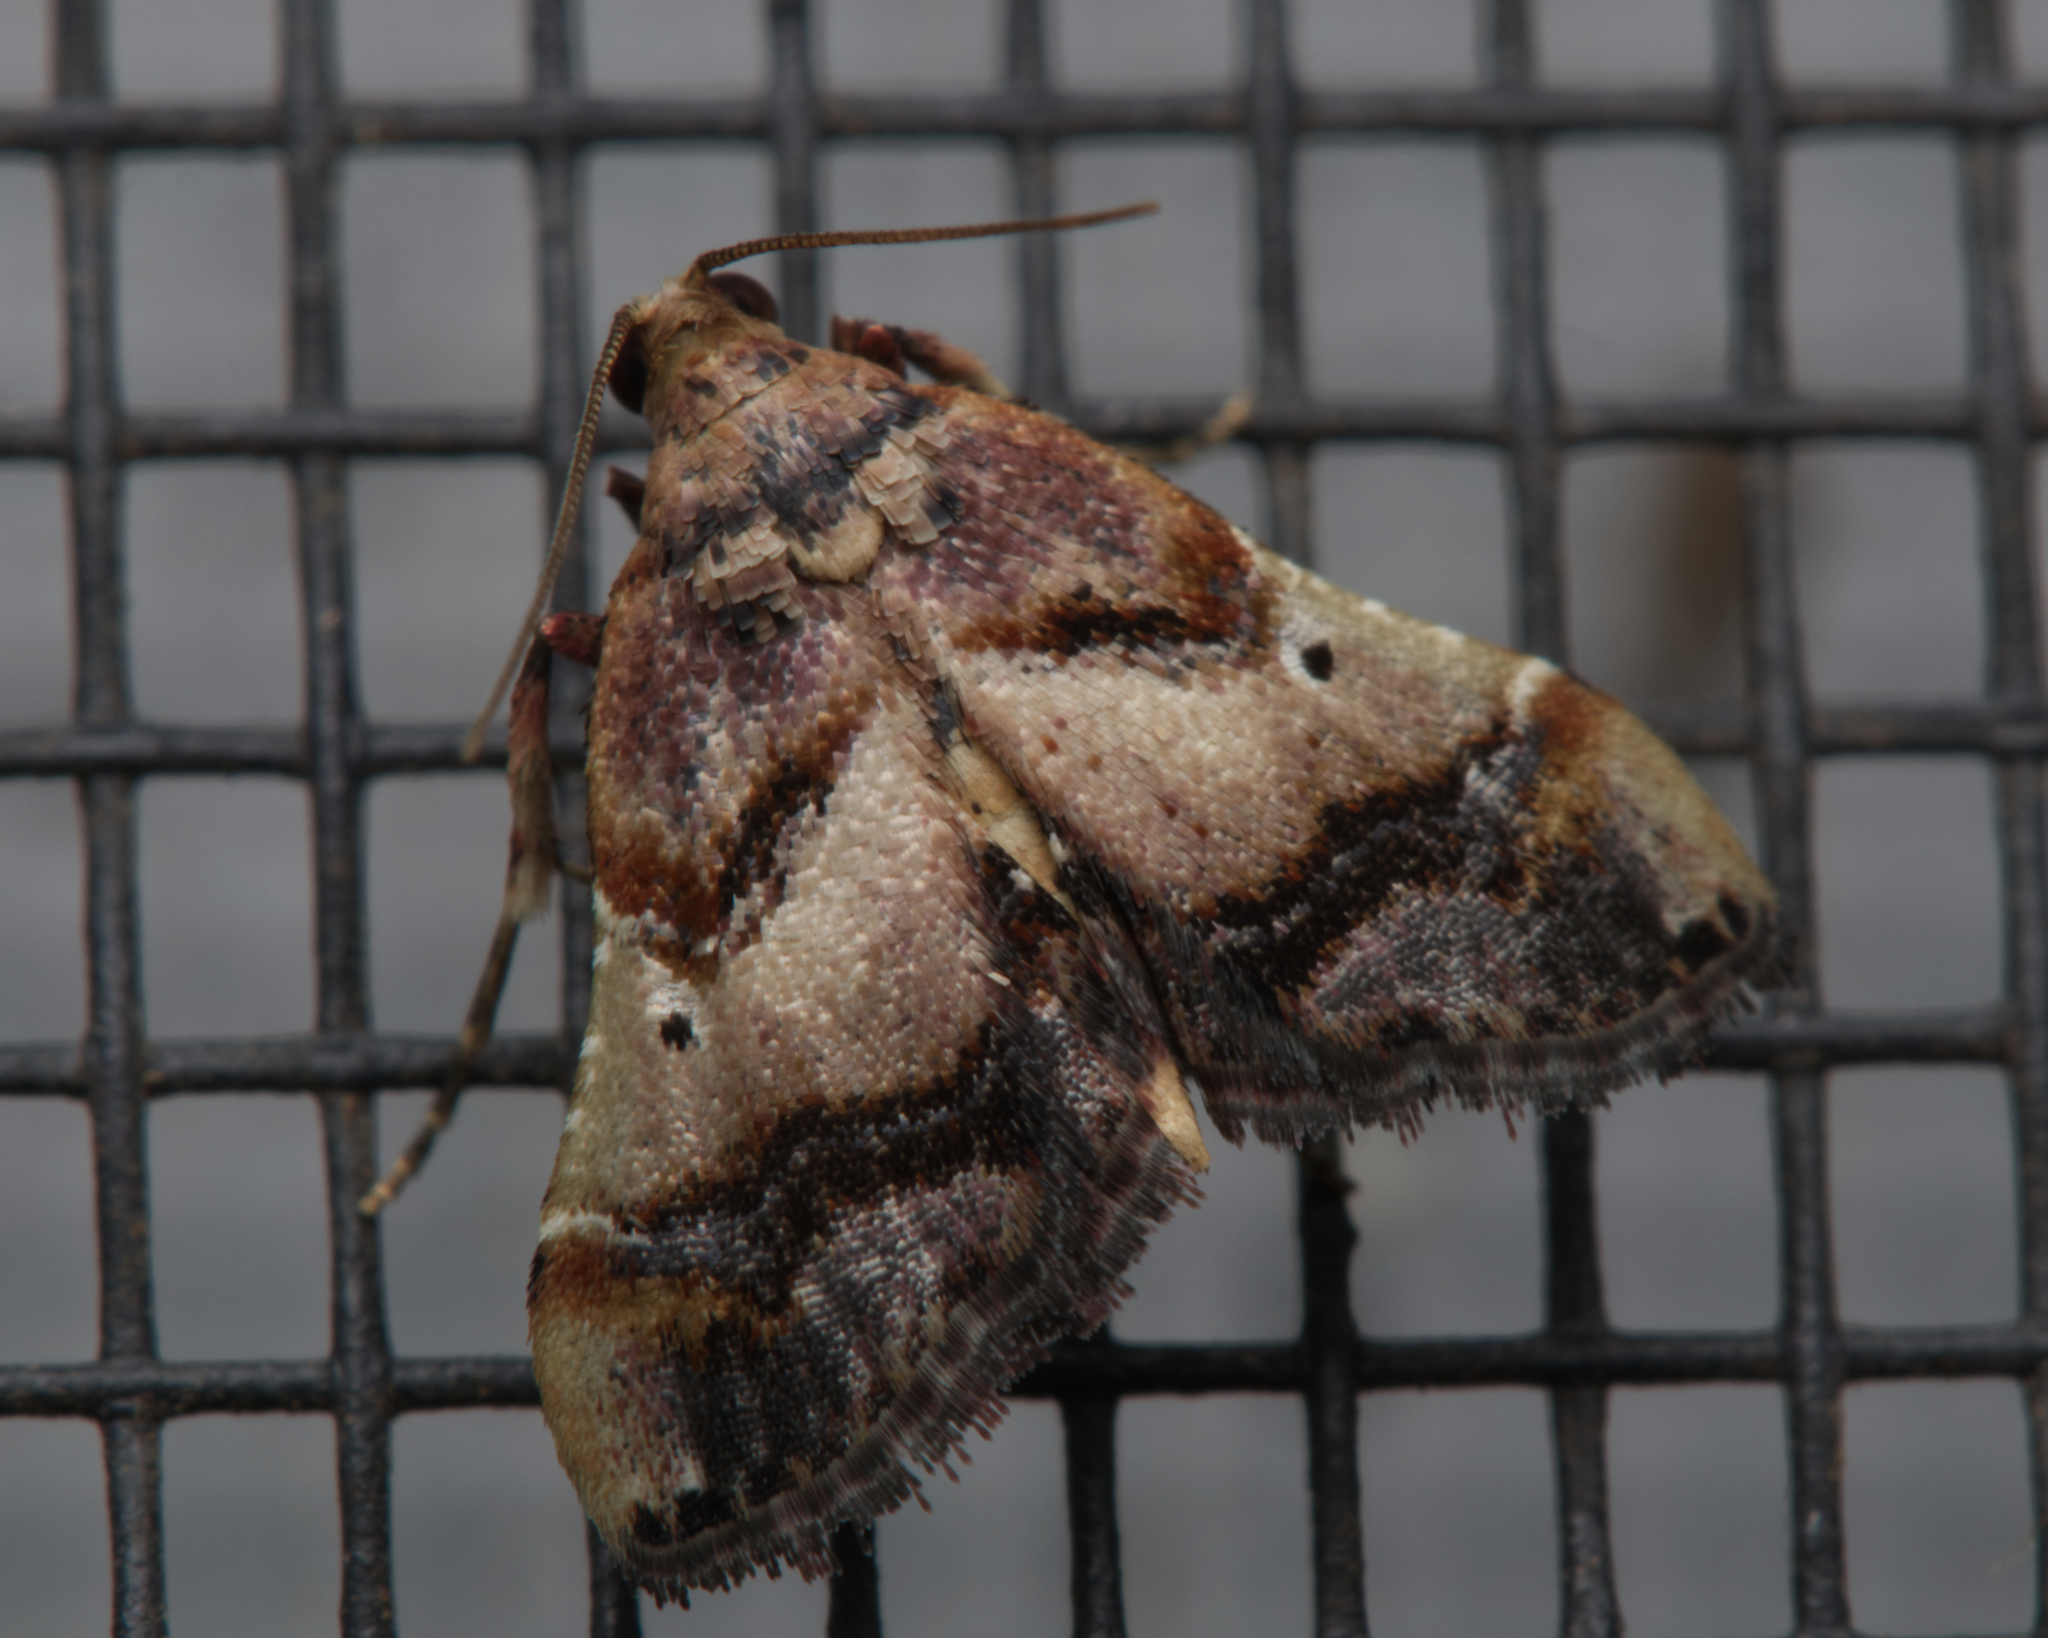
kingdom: Animalia
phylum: Arthropoda
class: Insecta
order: Lepidoptera
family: Pyralidae
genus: Scenedra
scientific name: Scenedra decoratalis
